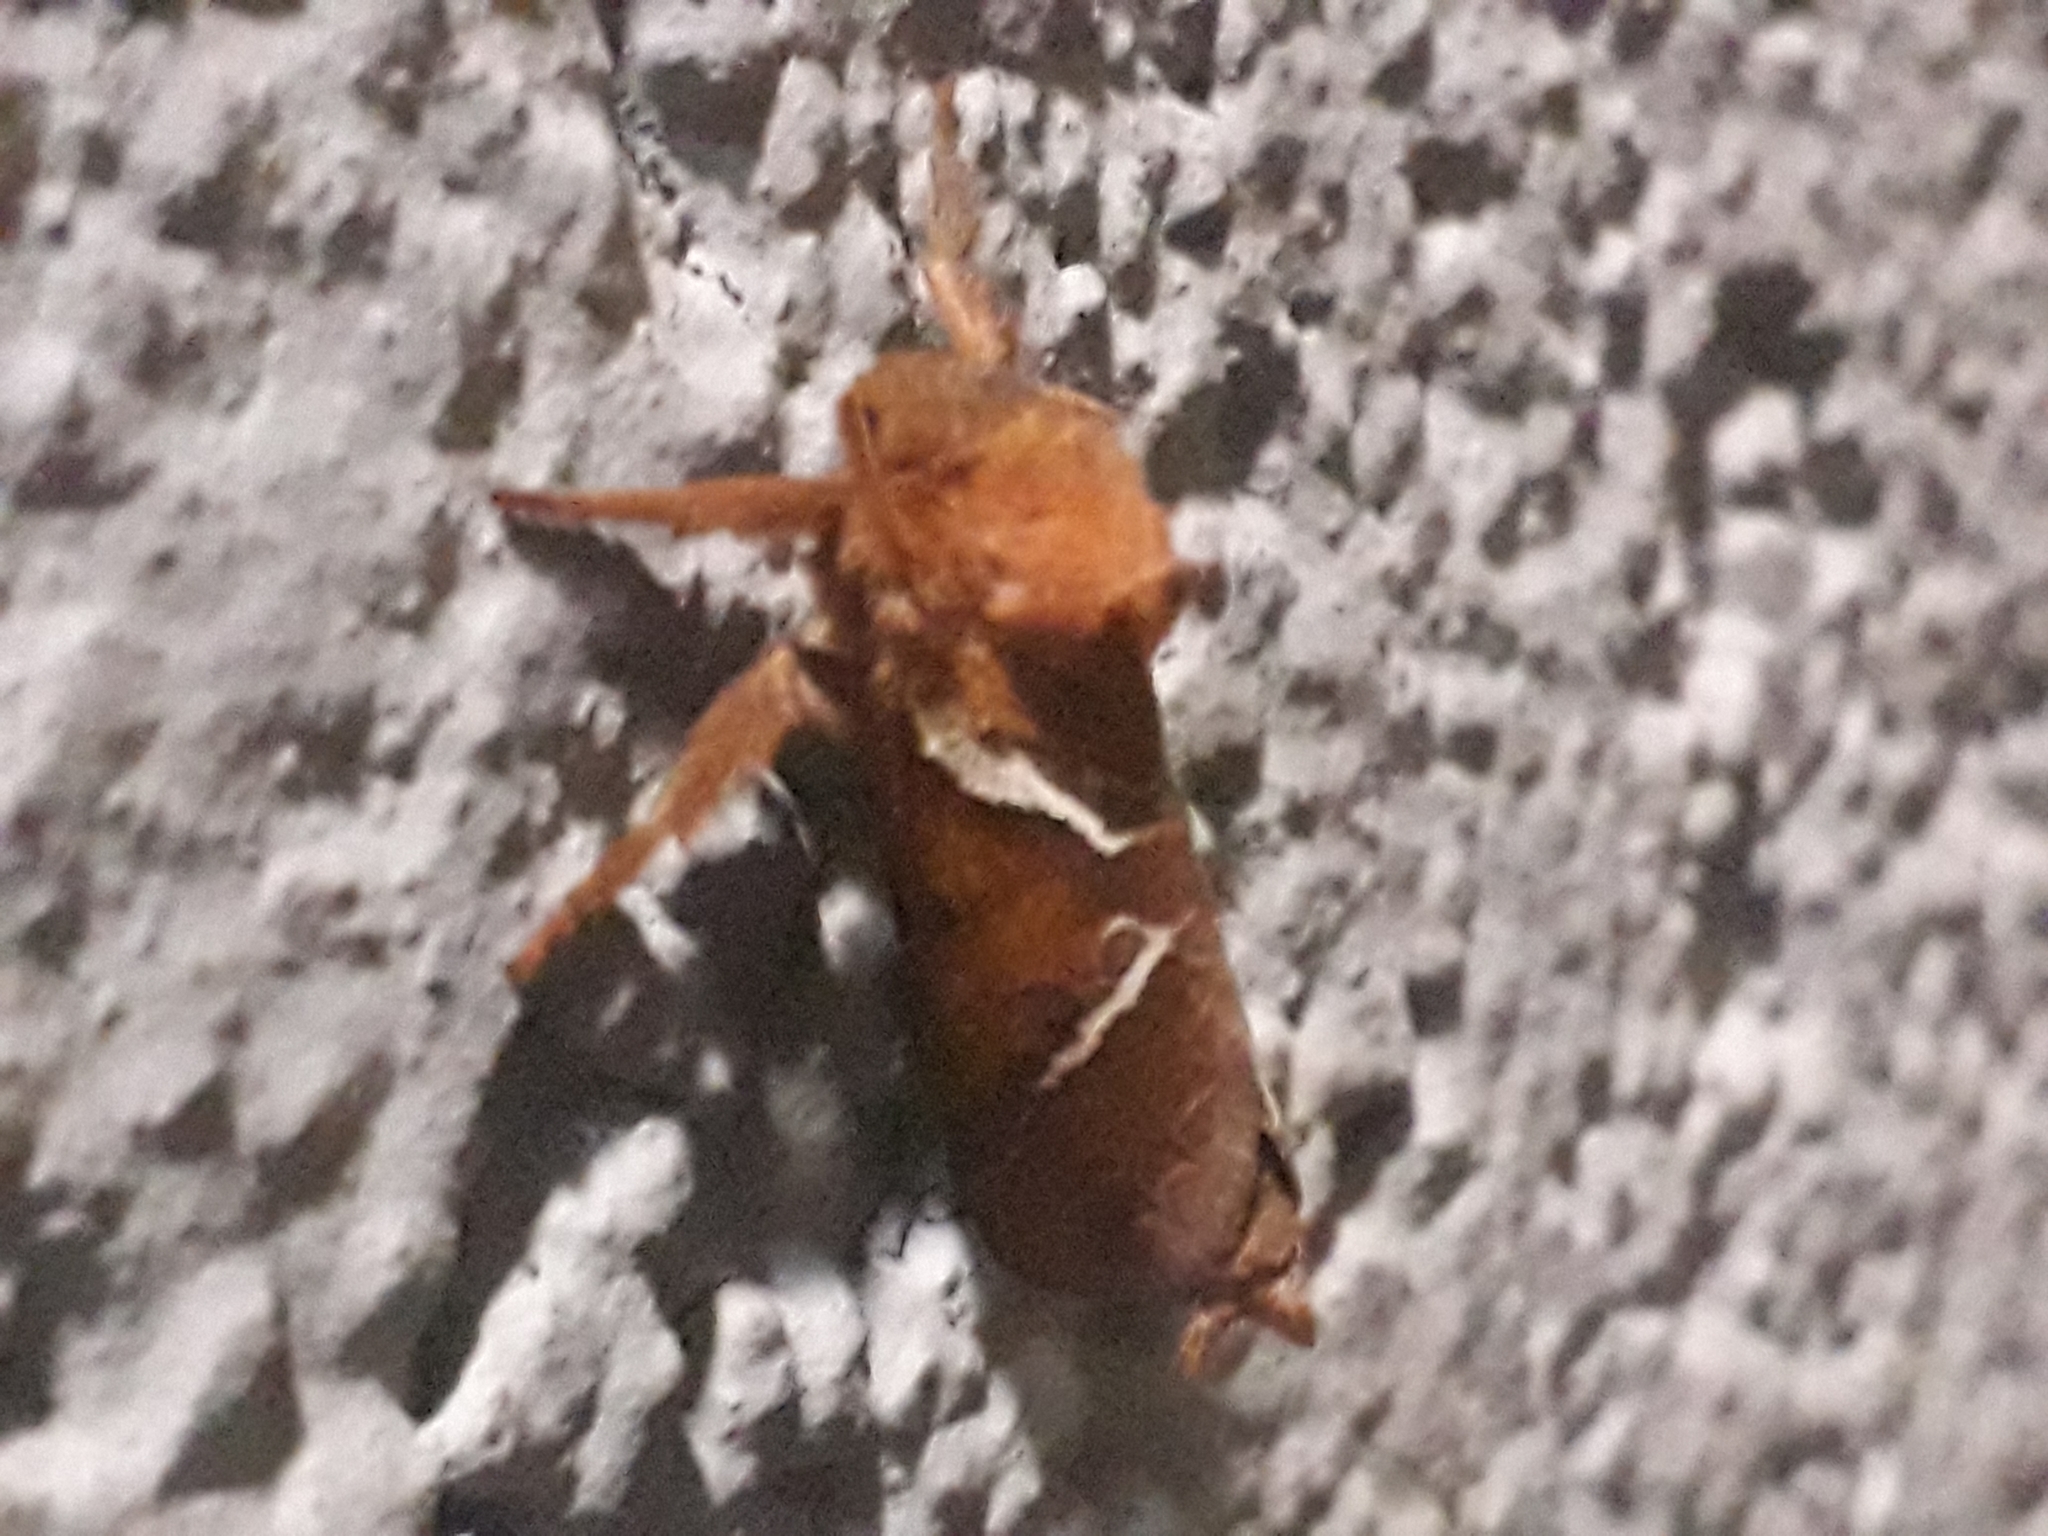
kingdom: Animalia
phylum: Arthropoda
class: Insecta
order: Lepidoptera
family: Hepialidae
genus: Triodia
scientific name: Triodia sylvina
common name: Orange swift
